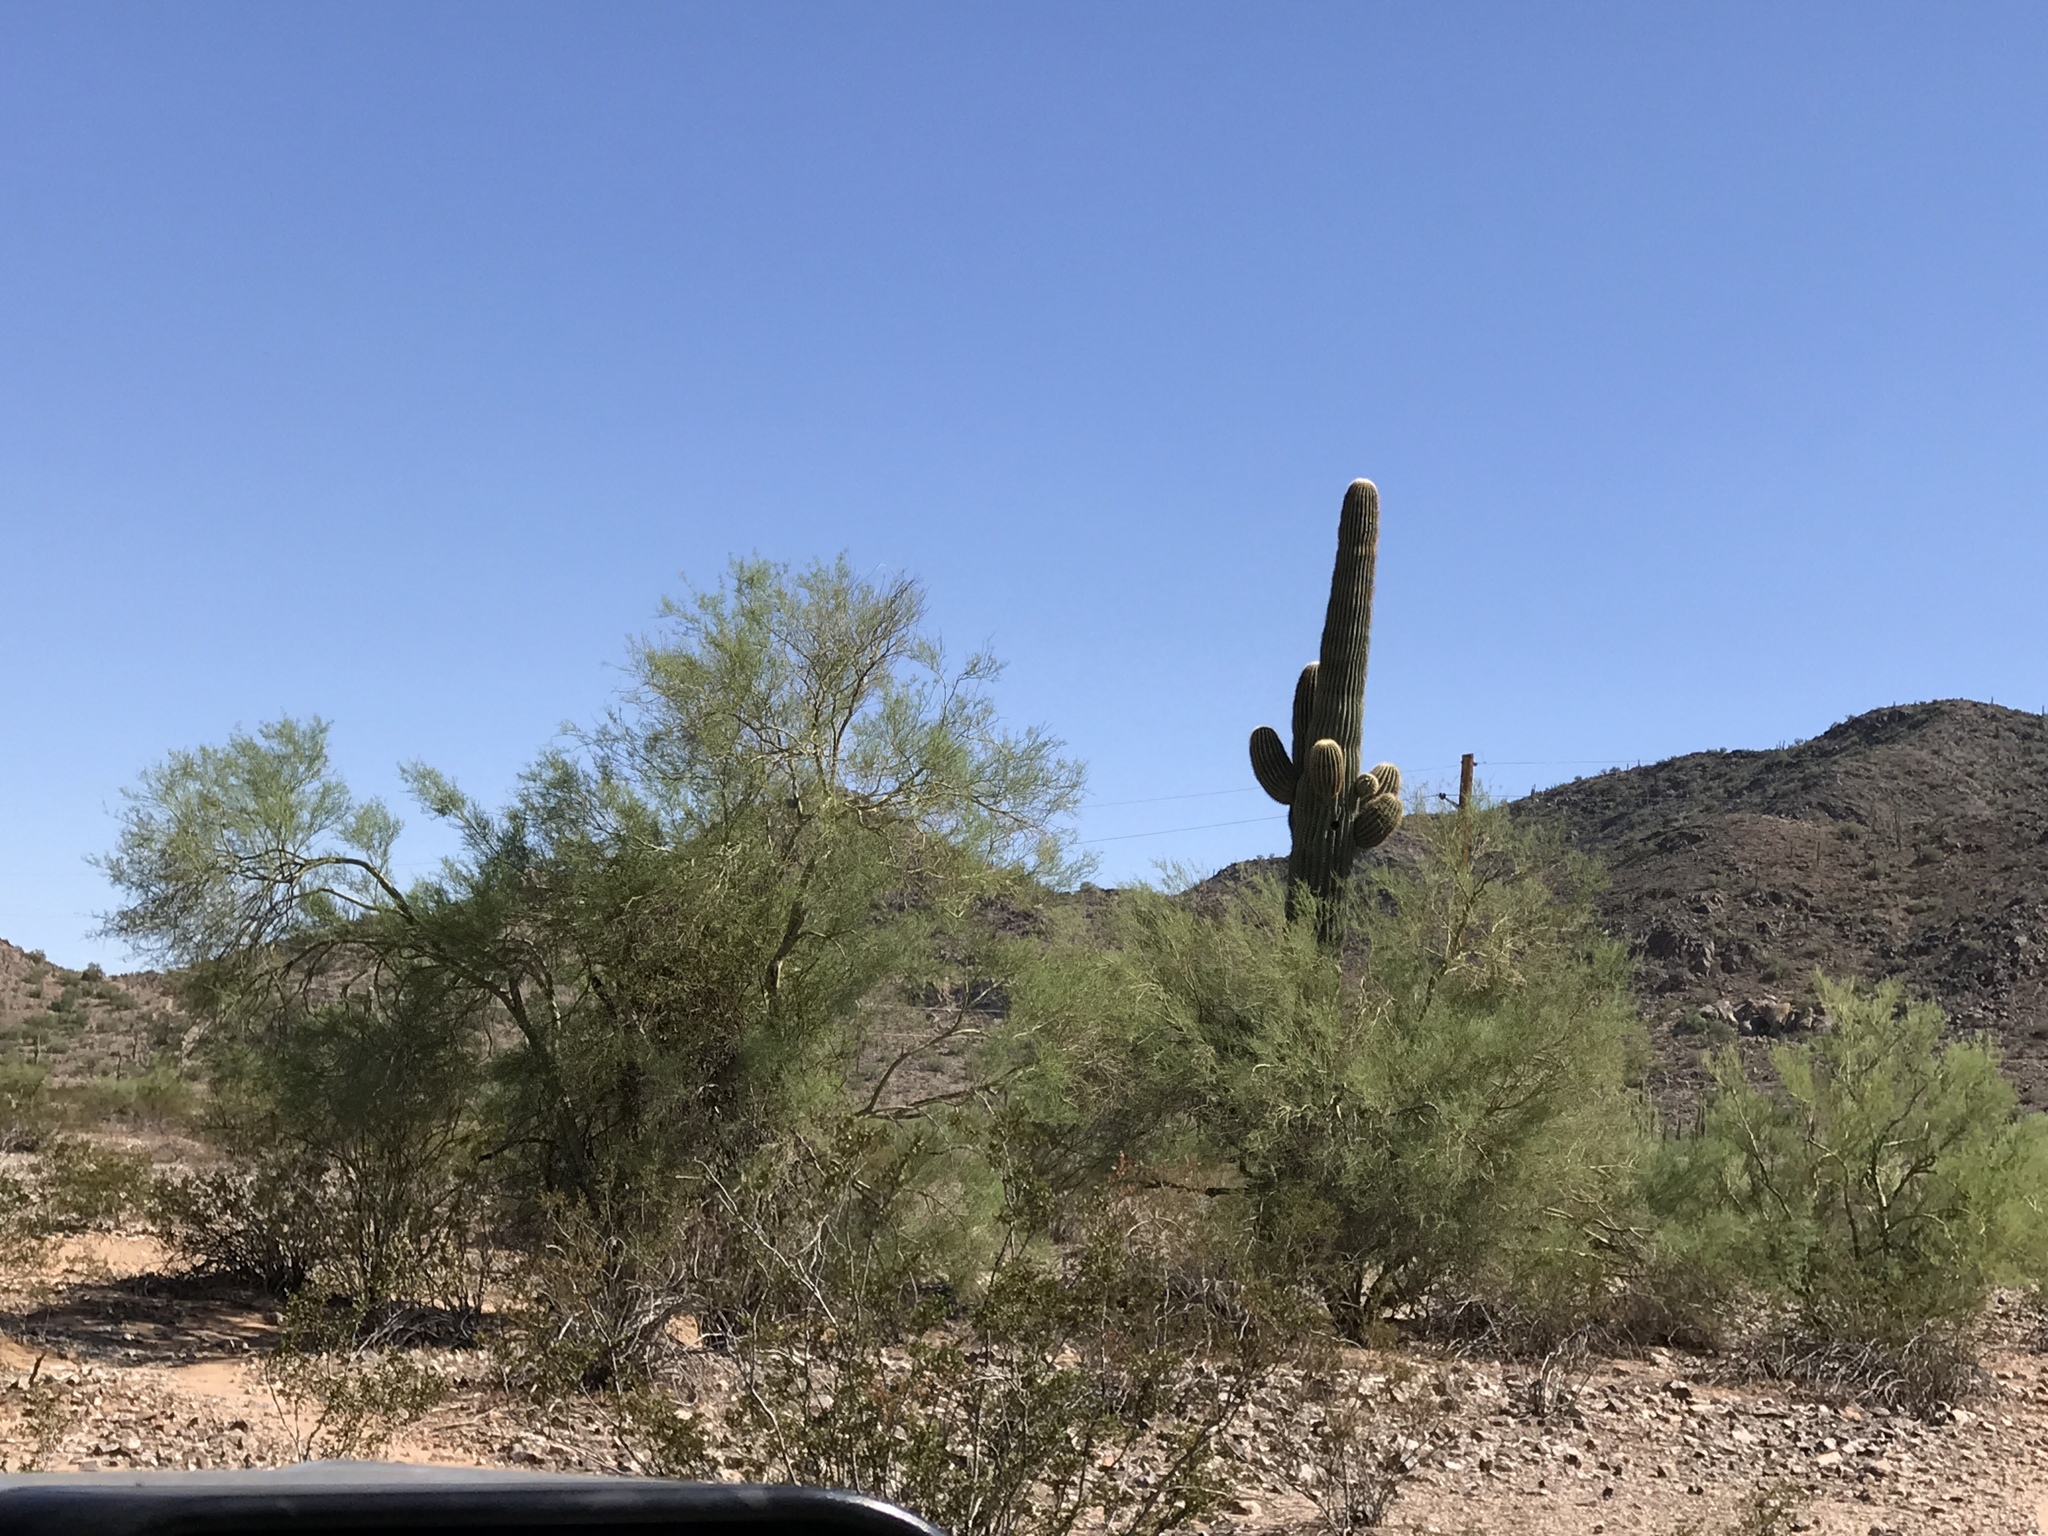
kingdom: Plantae
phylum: Tracheophyta
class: Magnoliopsida
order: Fabales
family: Fabaceae
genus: Parkinsonia
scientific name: Parkinsonia microphylla
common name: Yellow paloverde
